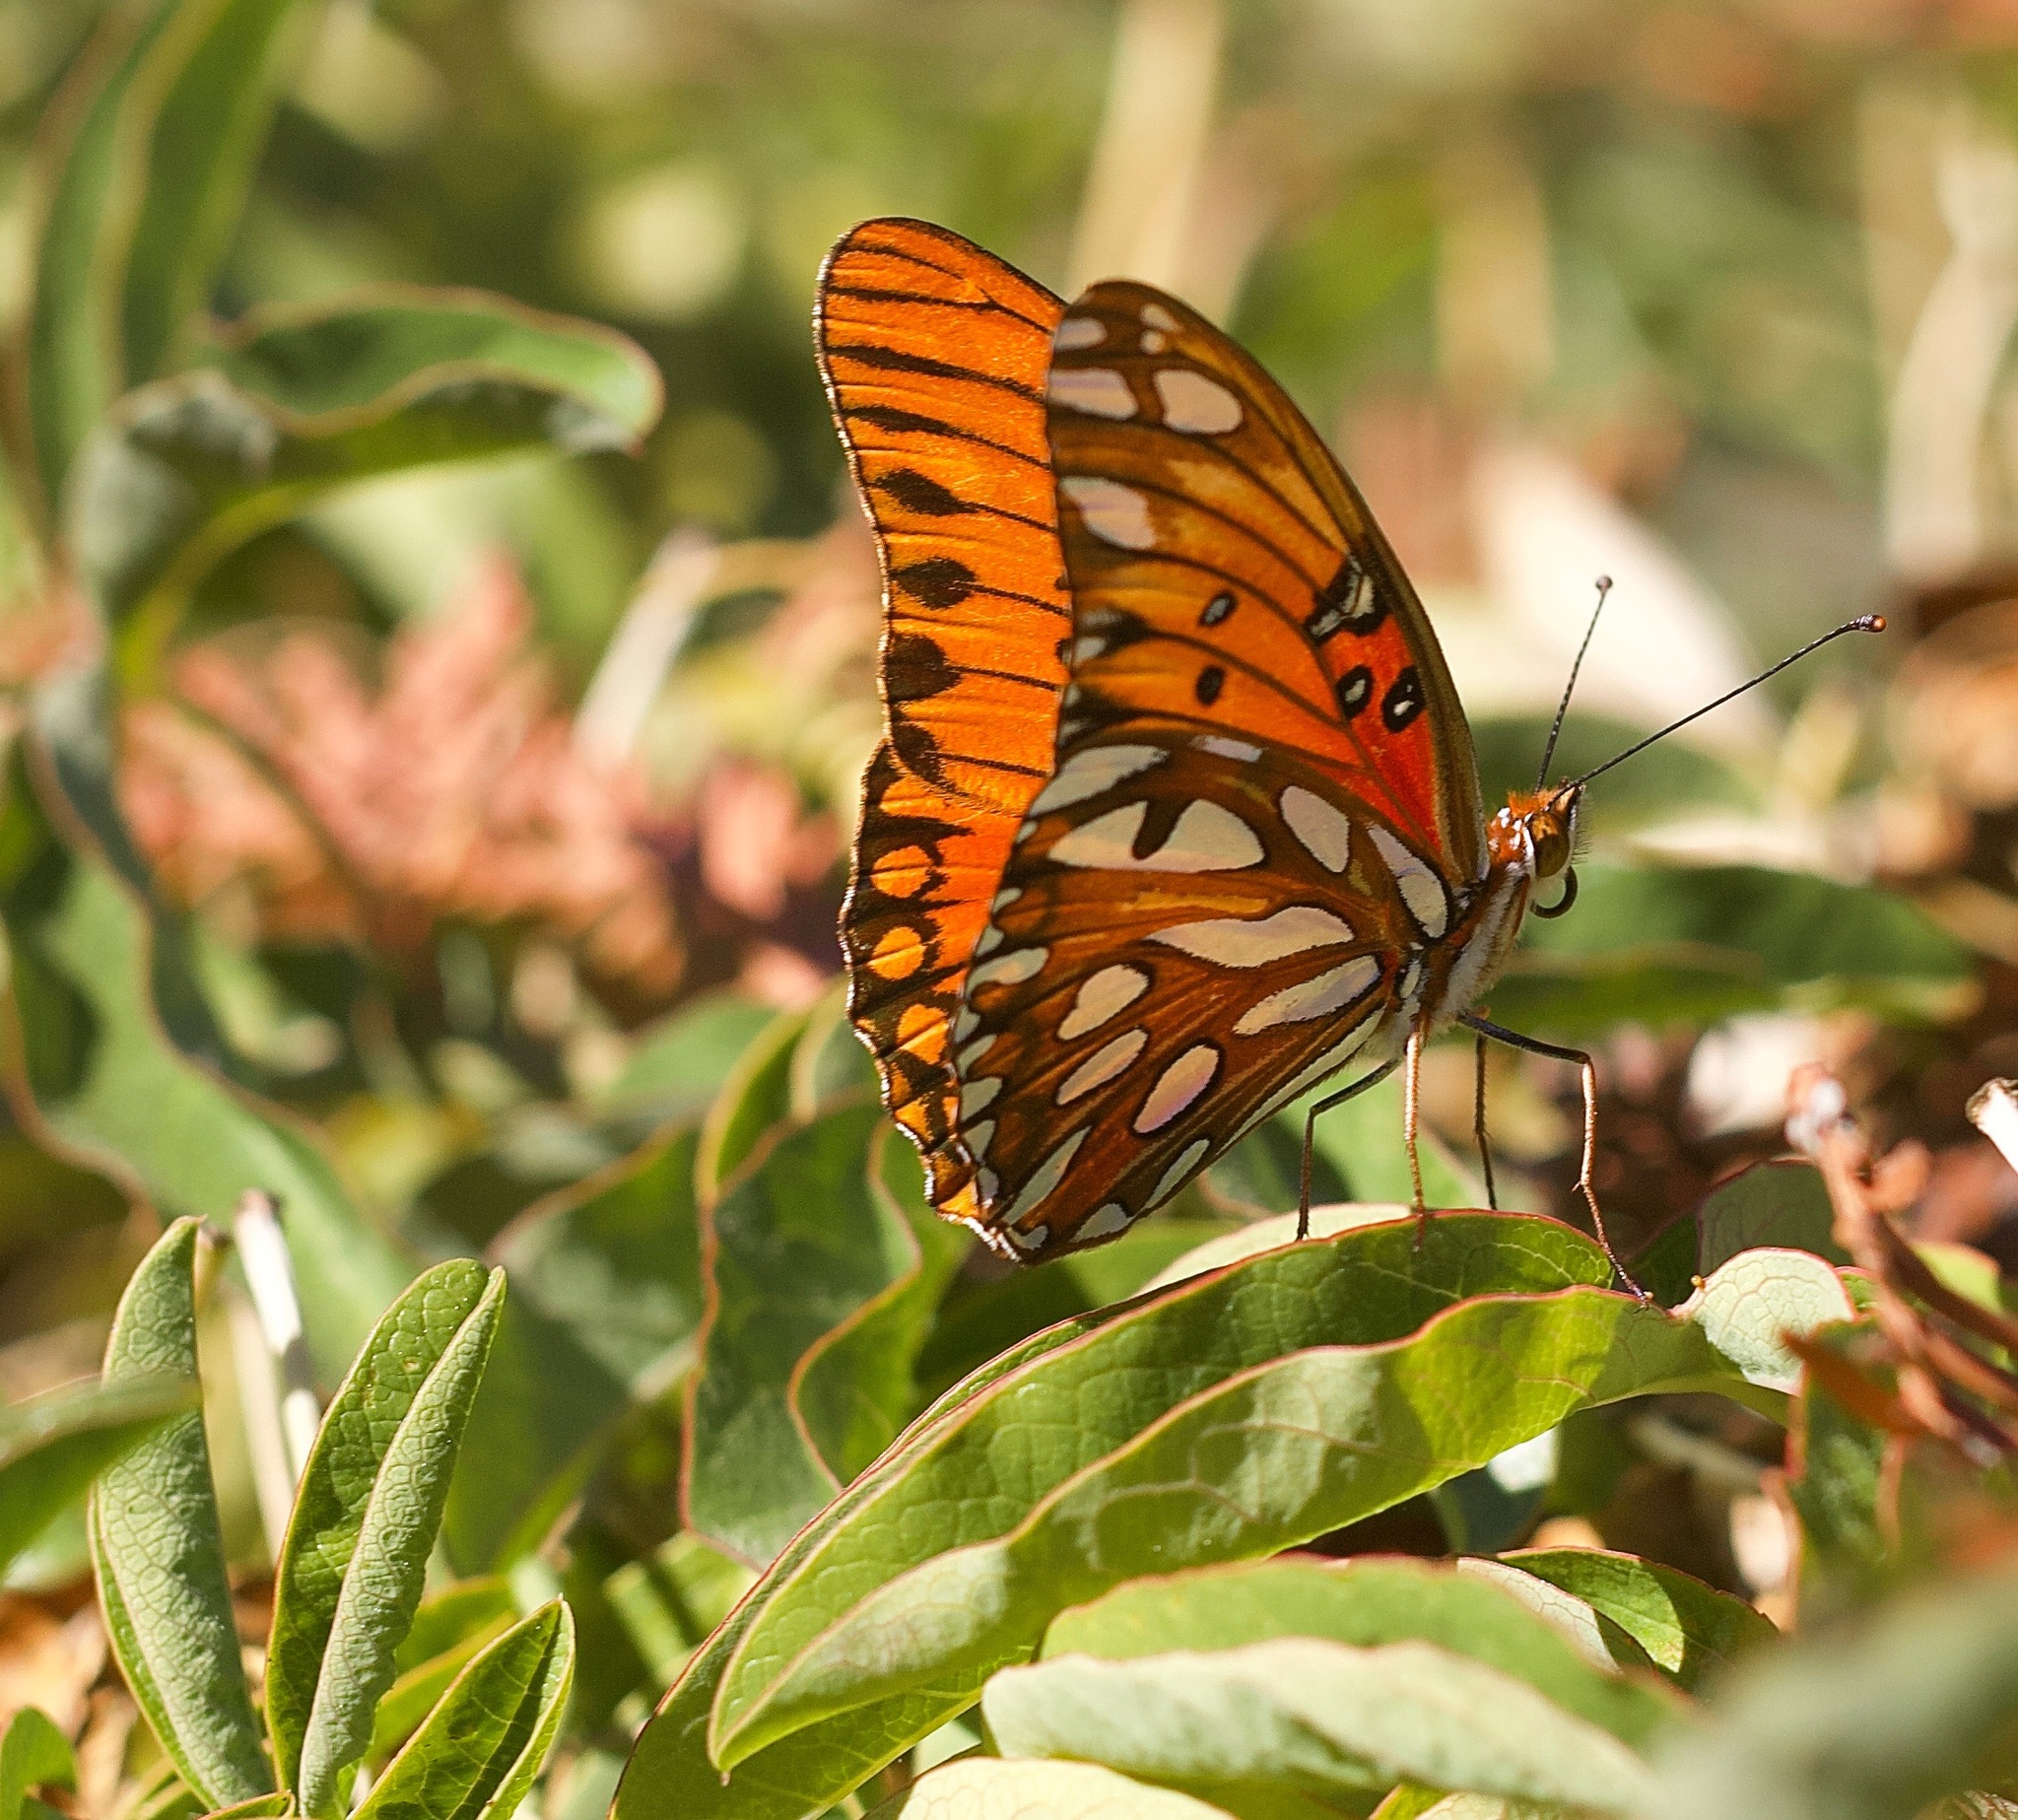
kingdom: Animalia
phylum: Arthropoda
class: Insecta
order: Lepidoptera
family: Nymphalidae
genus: Dione
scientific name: Dione vanillae
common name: Gulf fritillary
